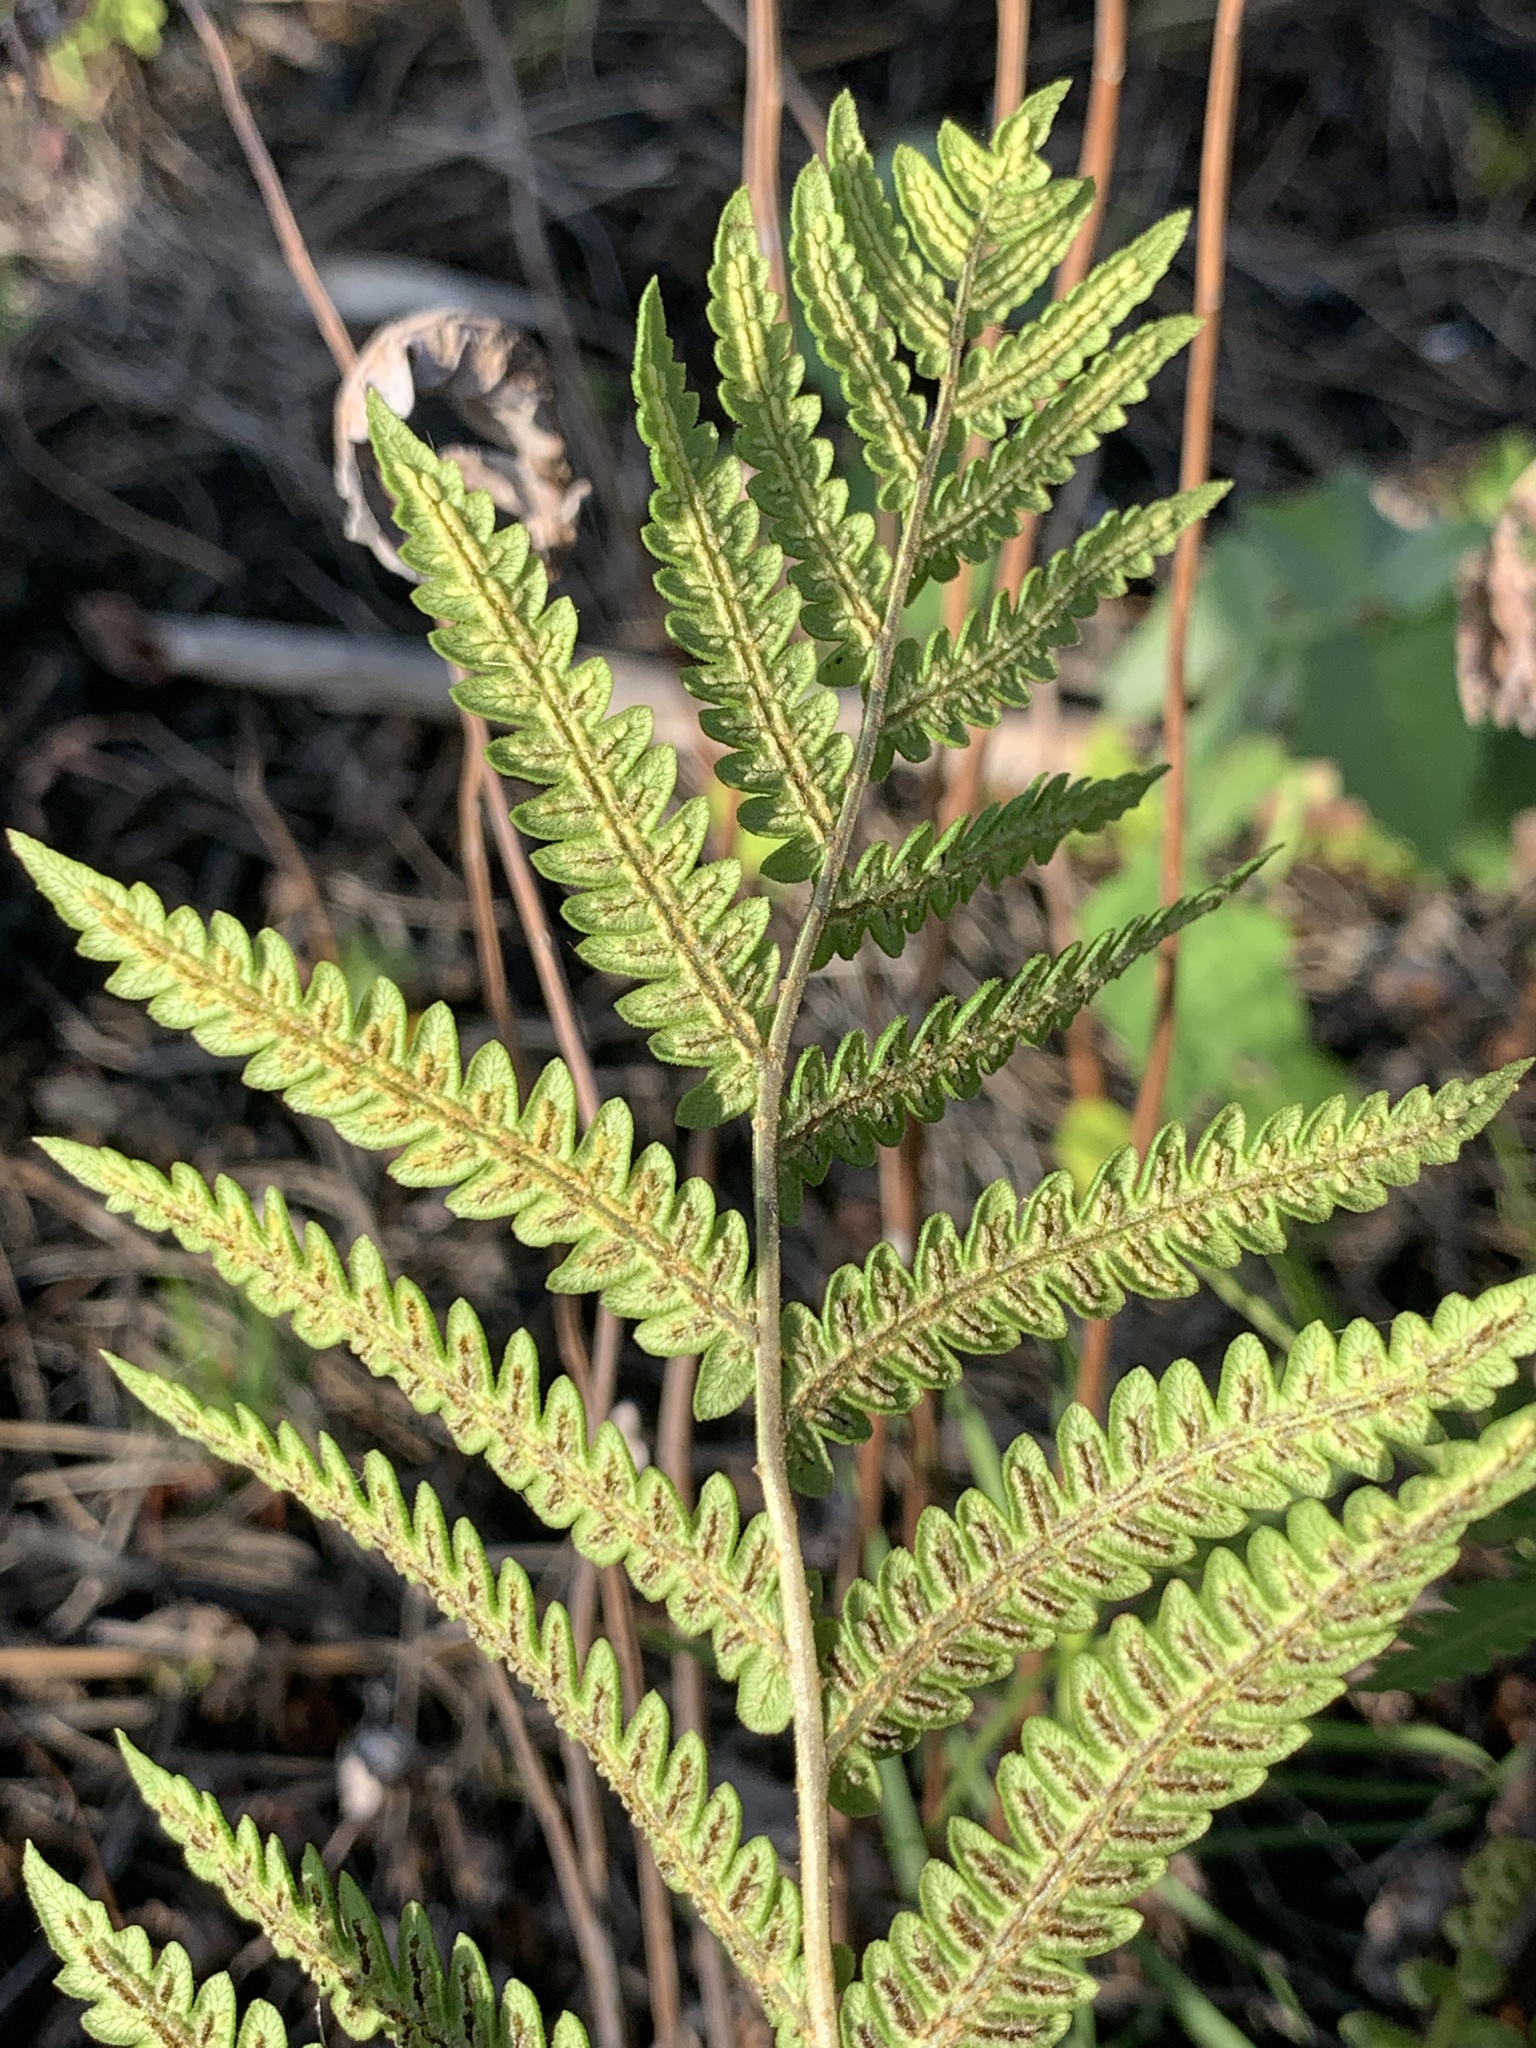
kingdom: Plantae
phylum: Tracheophyta
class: Polypodiopsida
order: Polypodiales
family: Blechnaceae
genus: Anchistea
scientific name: Anchistea virginica
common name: Virginia chain fern
